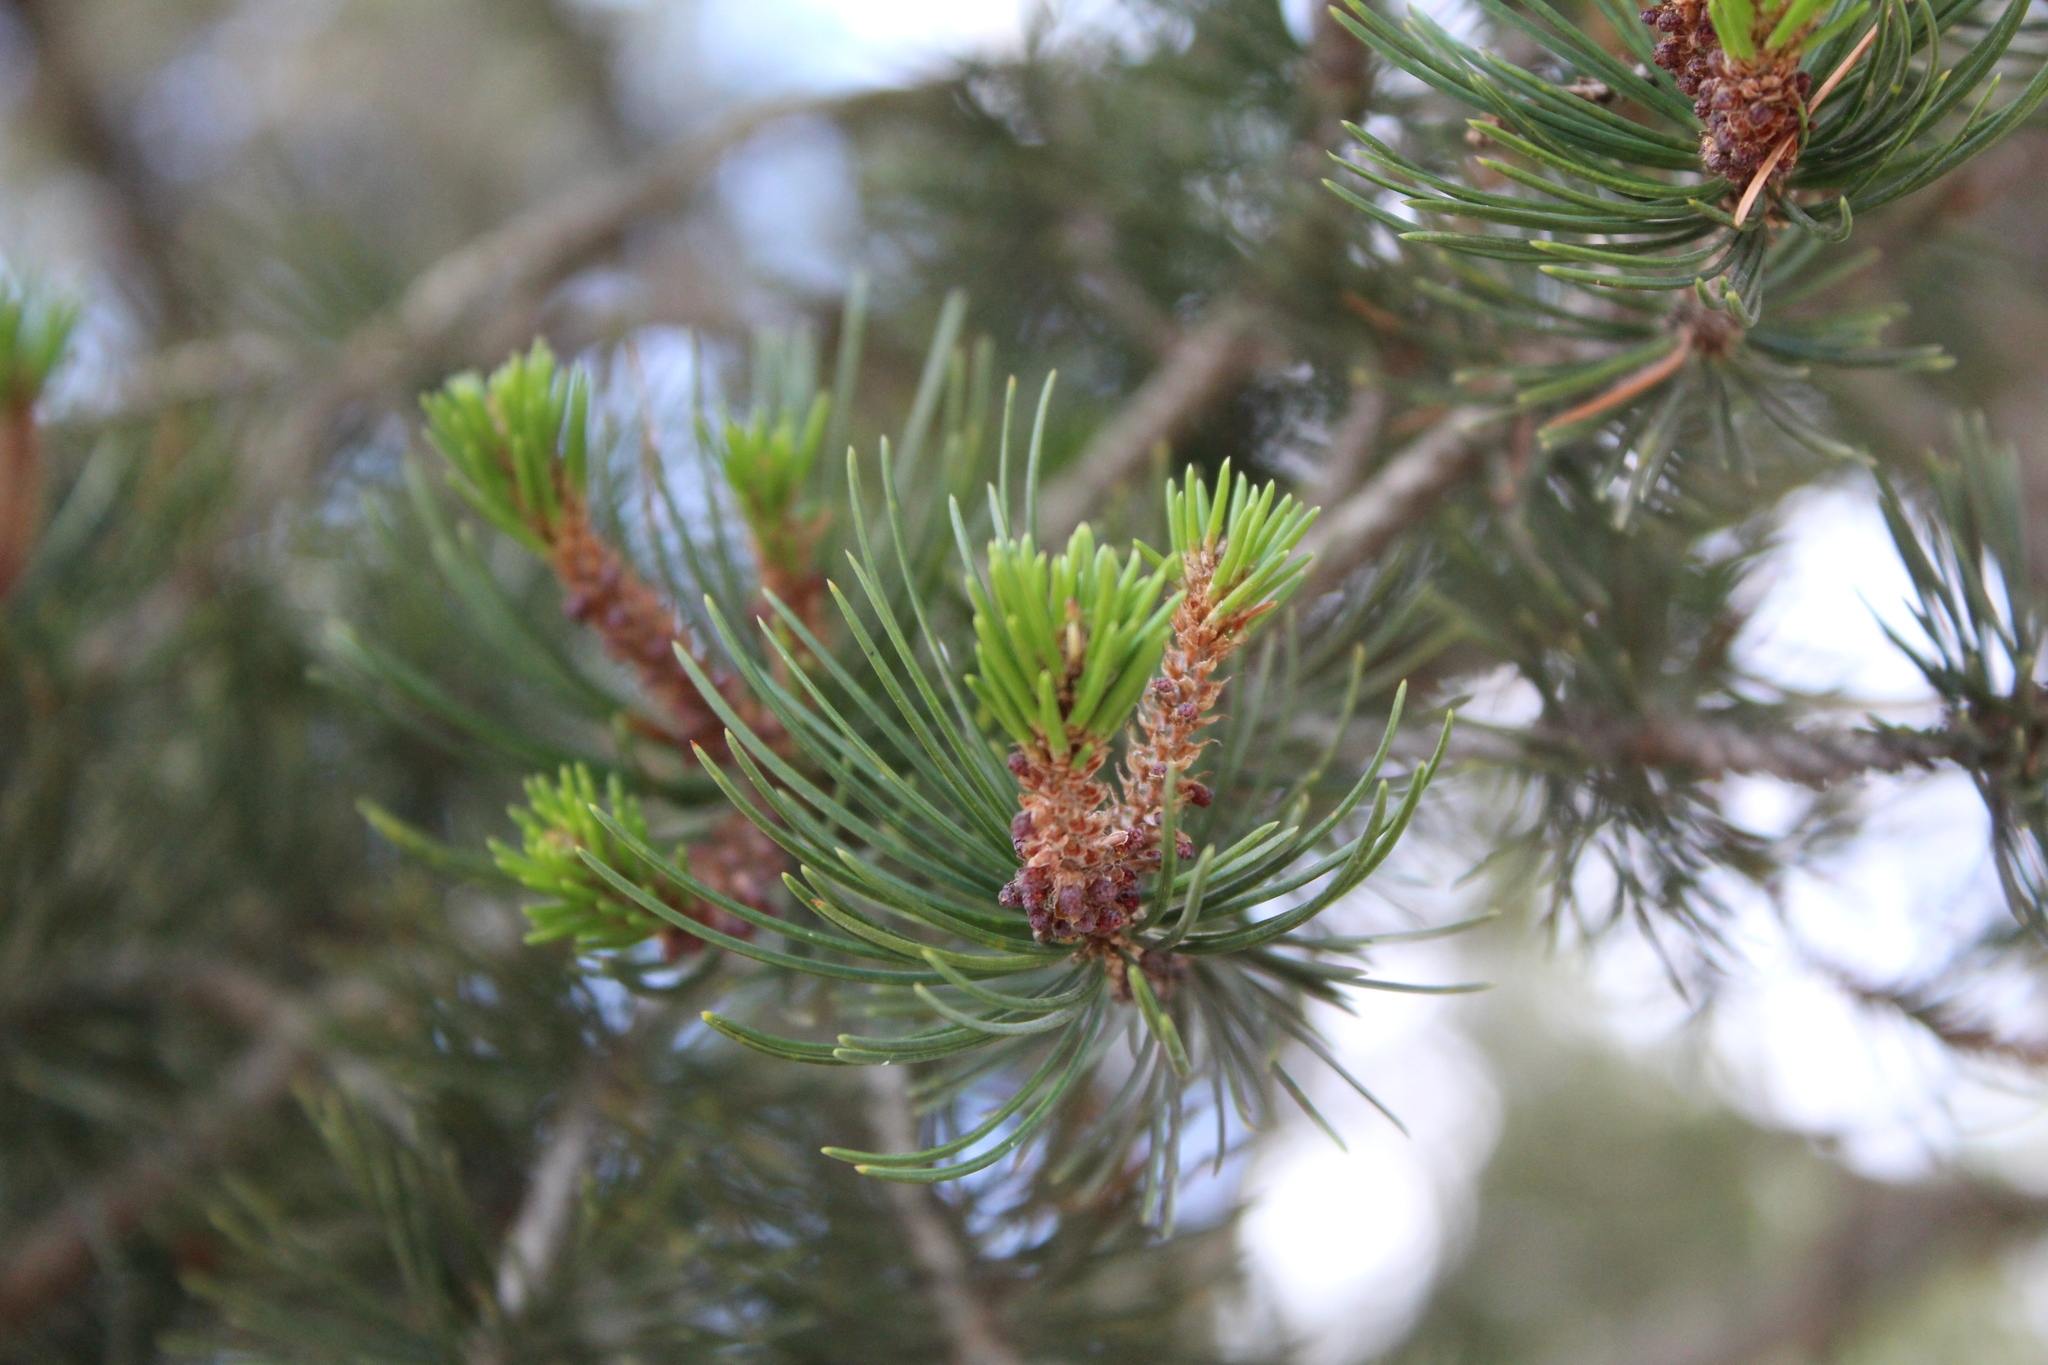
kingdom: Plantae
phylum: Tracheophyta
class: Pinopsida
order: Pinales
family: Pinaceae
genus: Pinus
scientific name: Pinus cembroides
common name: Mexican nut pine
